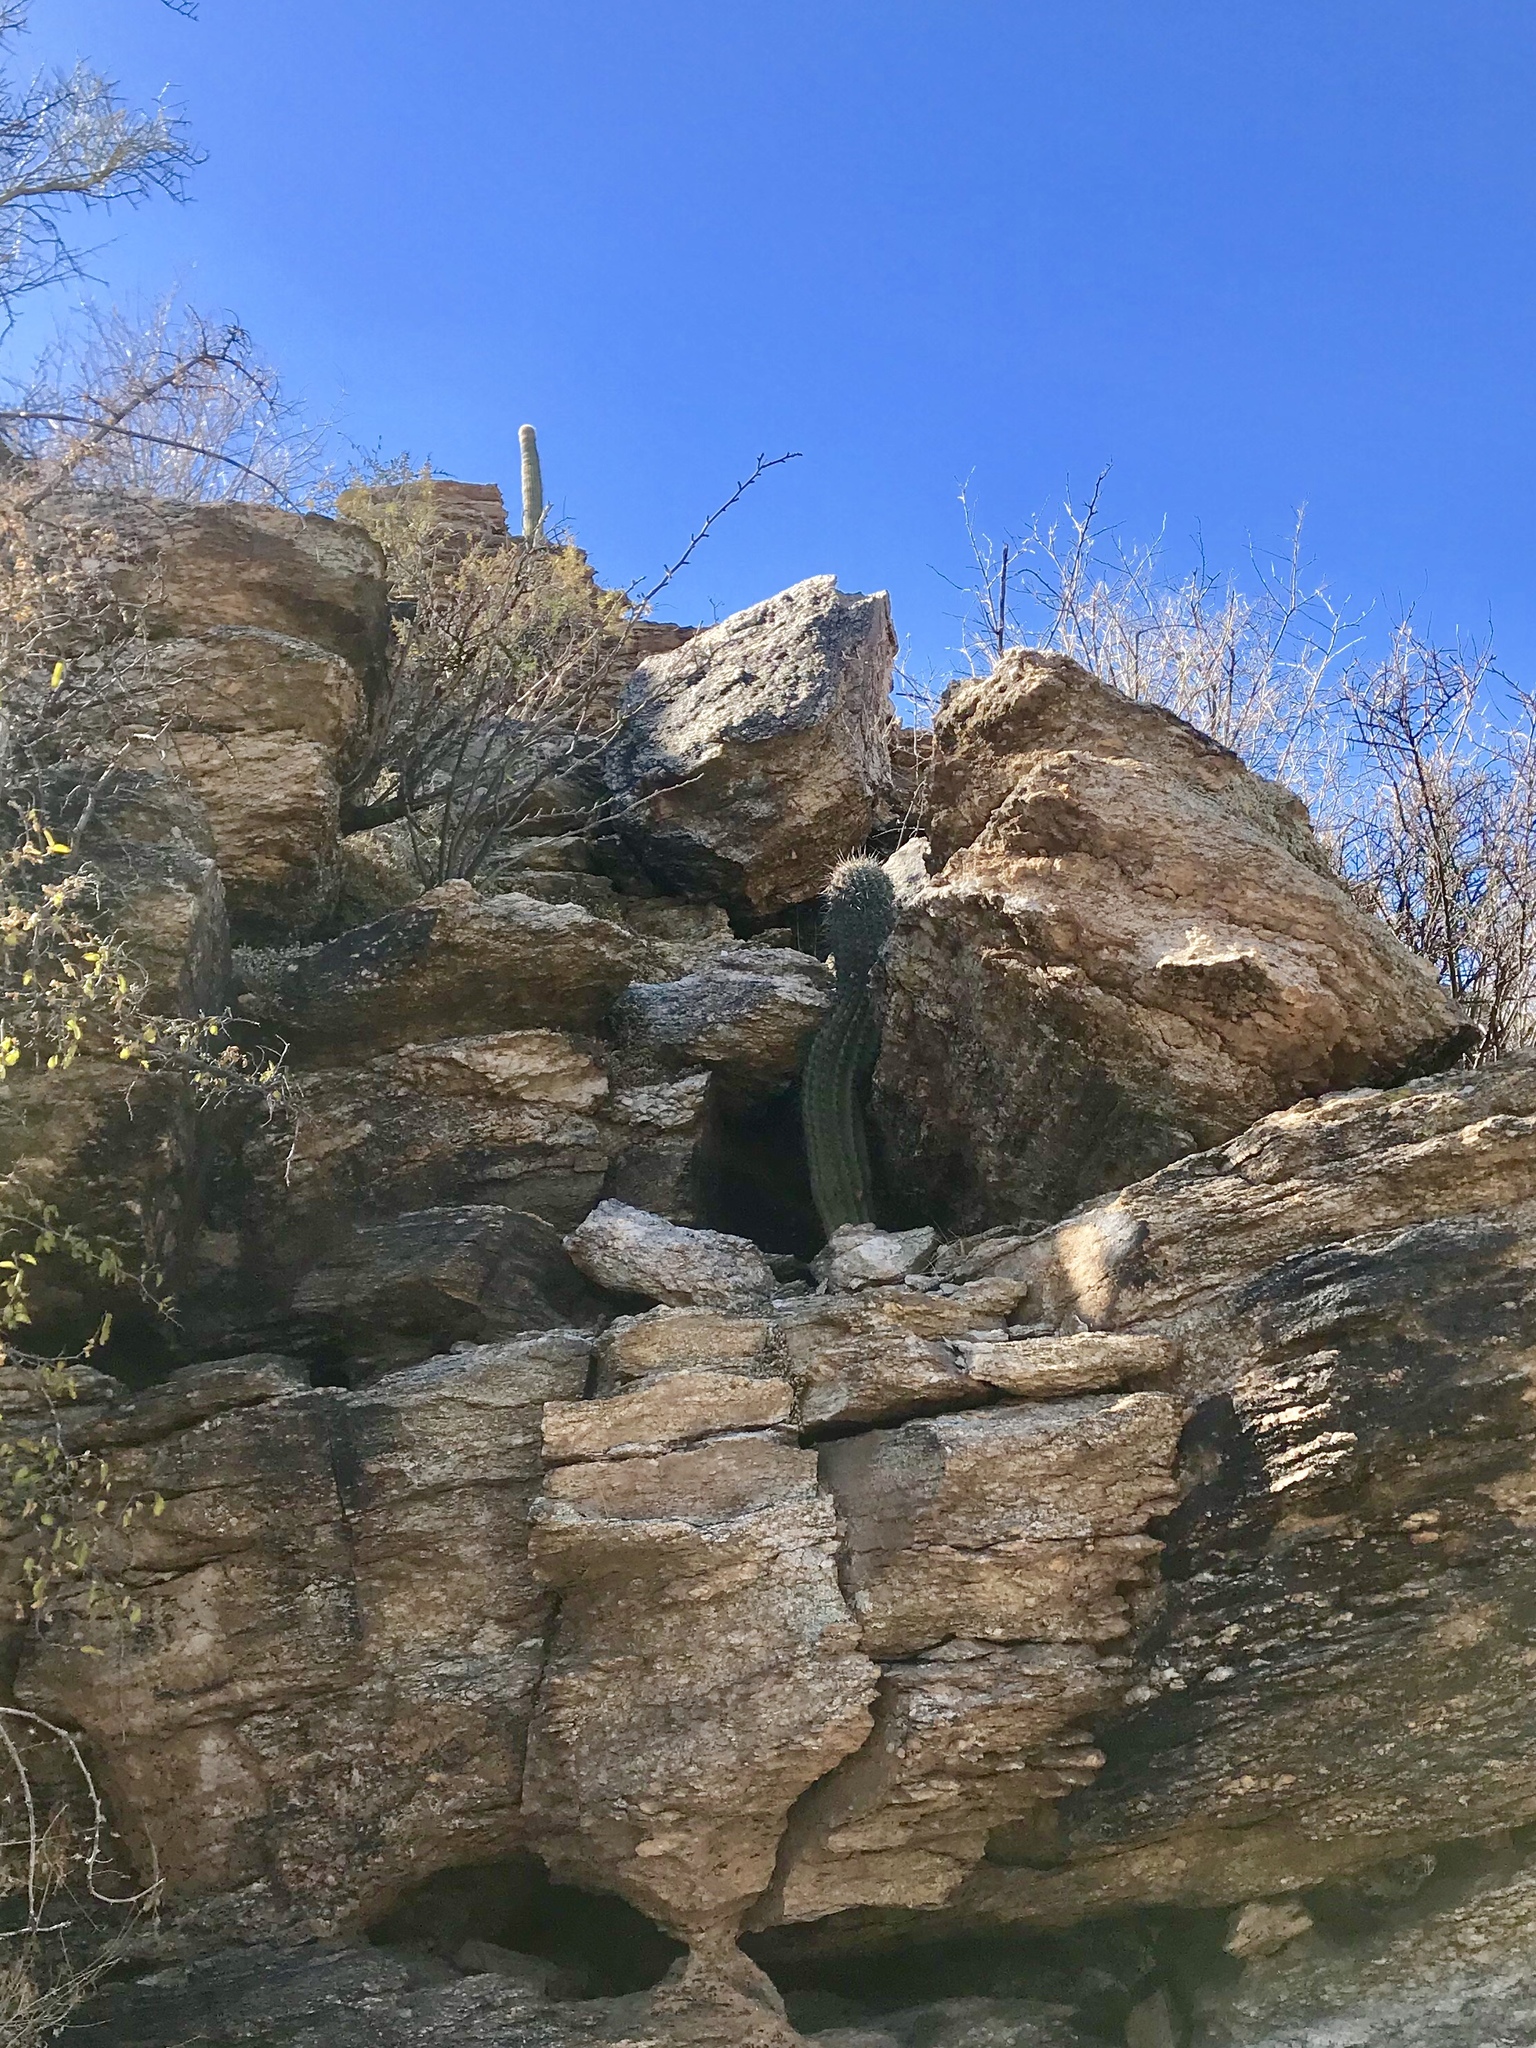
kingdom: Plantae
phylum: Tracheophyta
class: Magnoliopsida
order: Caryophyllales
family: Cactaceae
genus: Carnegiea
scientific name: Carnegiea gigantea
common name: Saguaro
